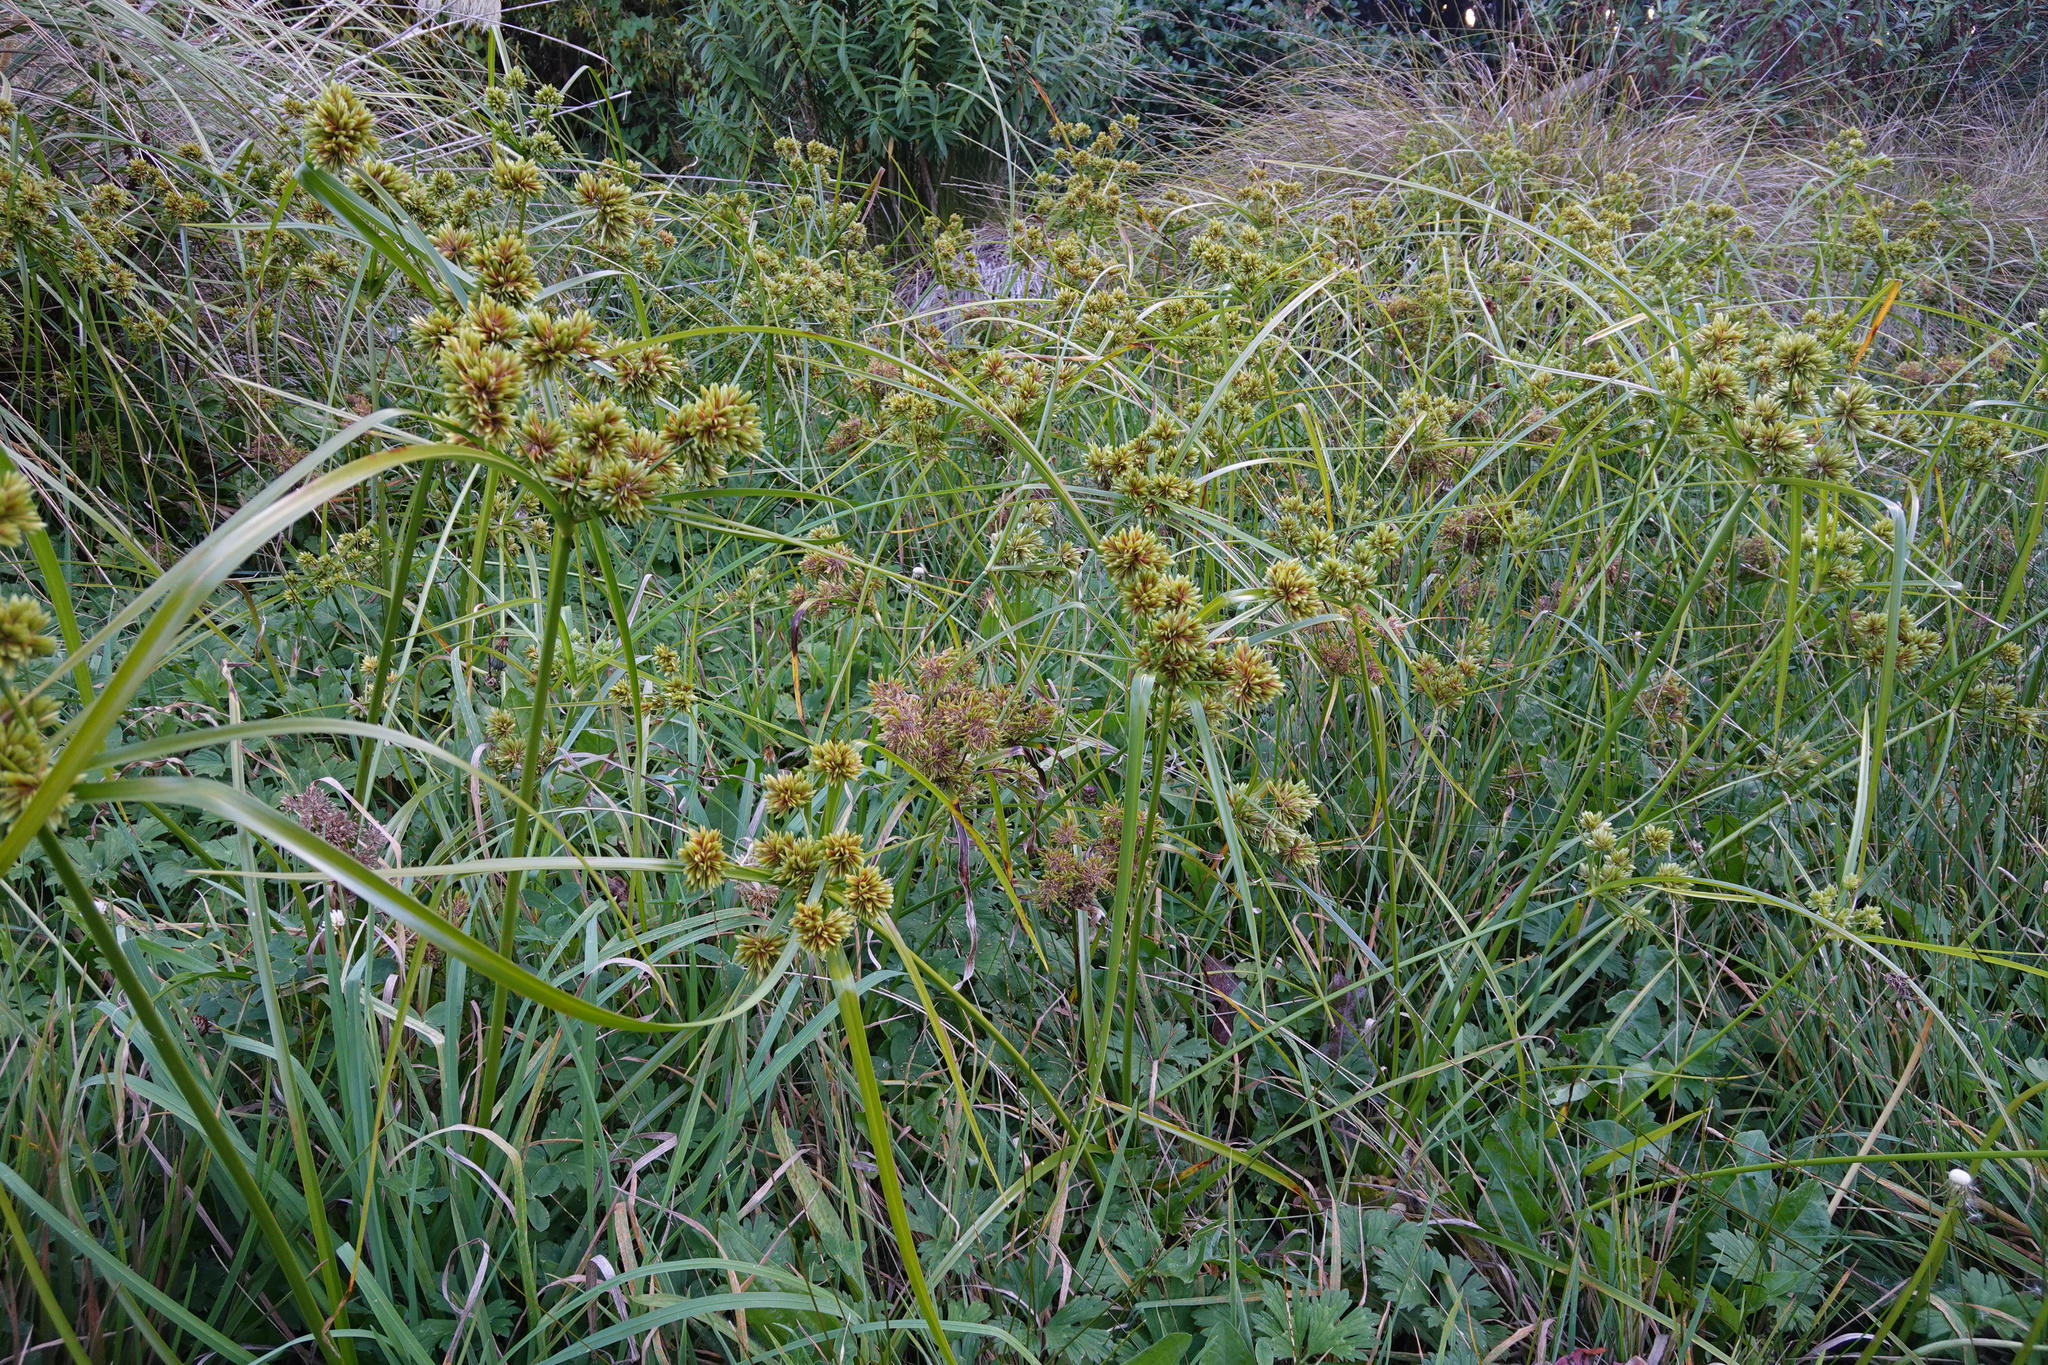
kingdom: Plantae
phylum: Tracheophyta
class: Liliopsida
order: Poales
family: Cyperaceae
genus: Cyperus
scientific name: Cyperus eragrostis
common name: Tall flatsedge
